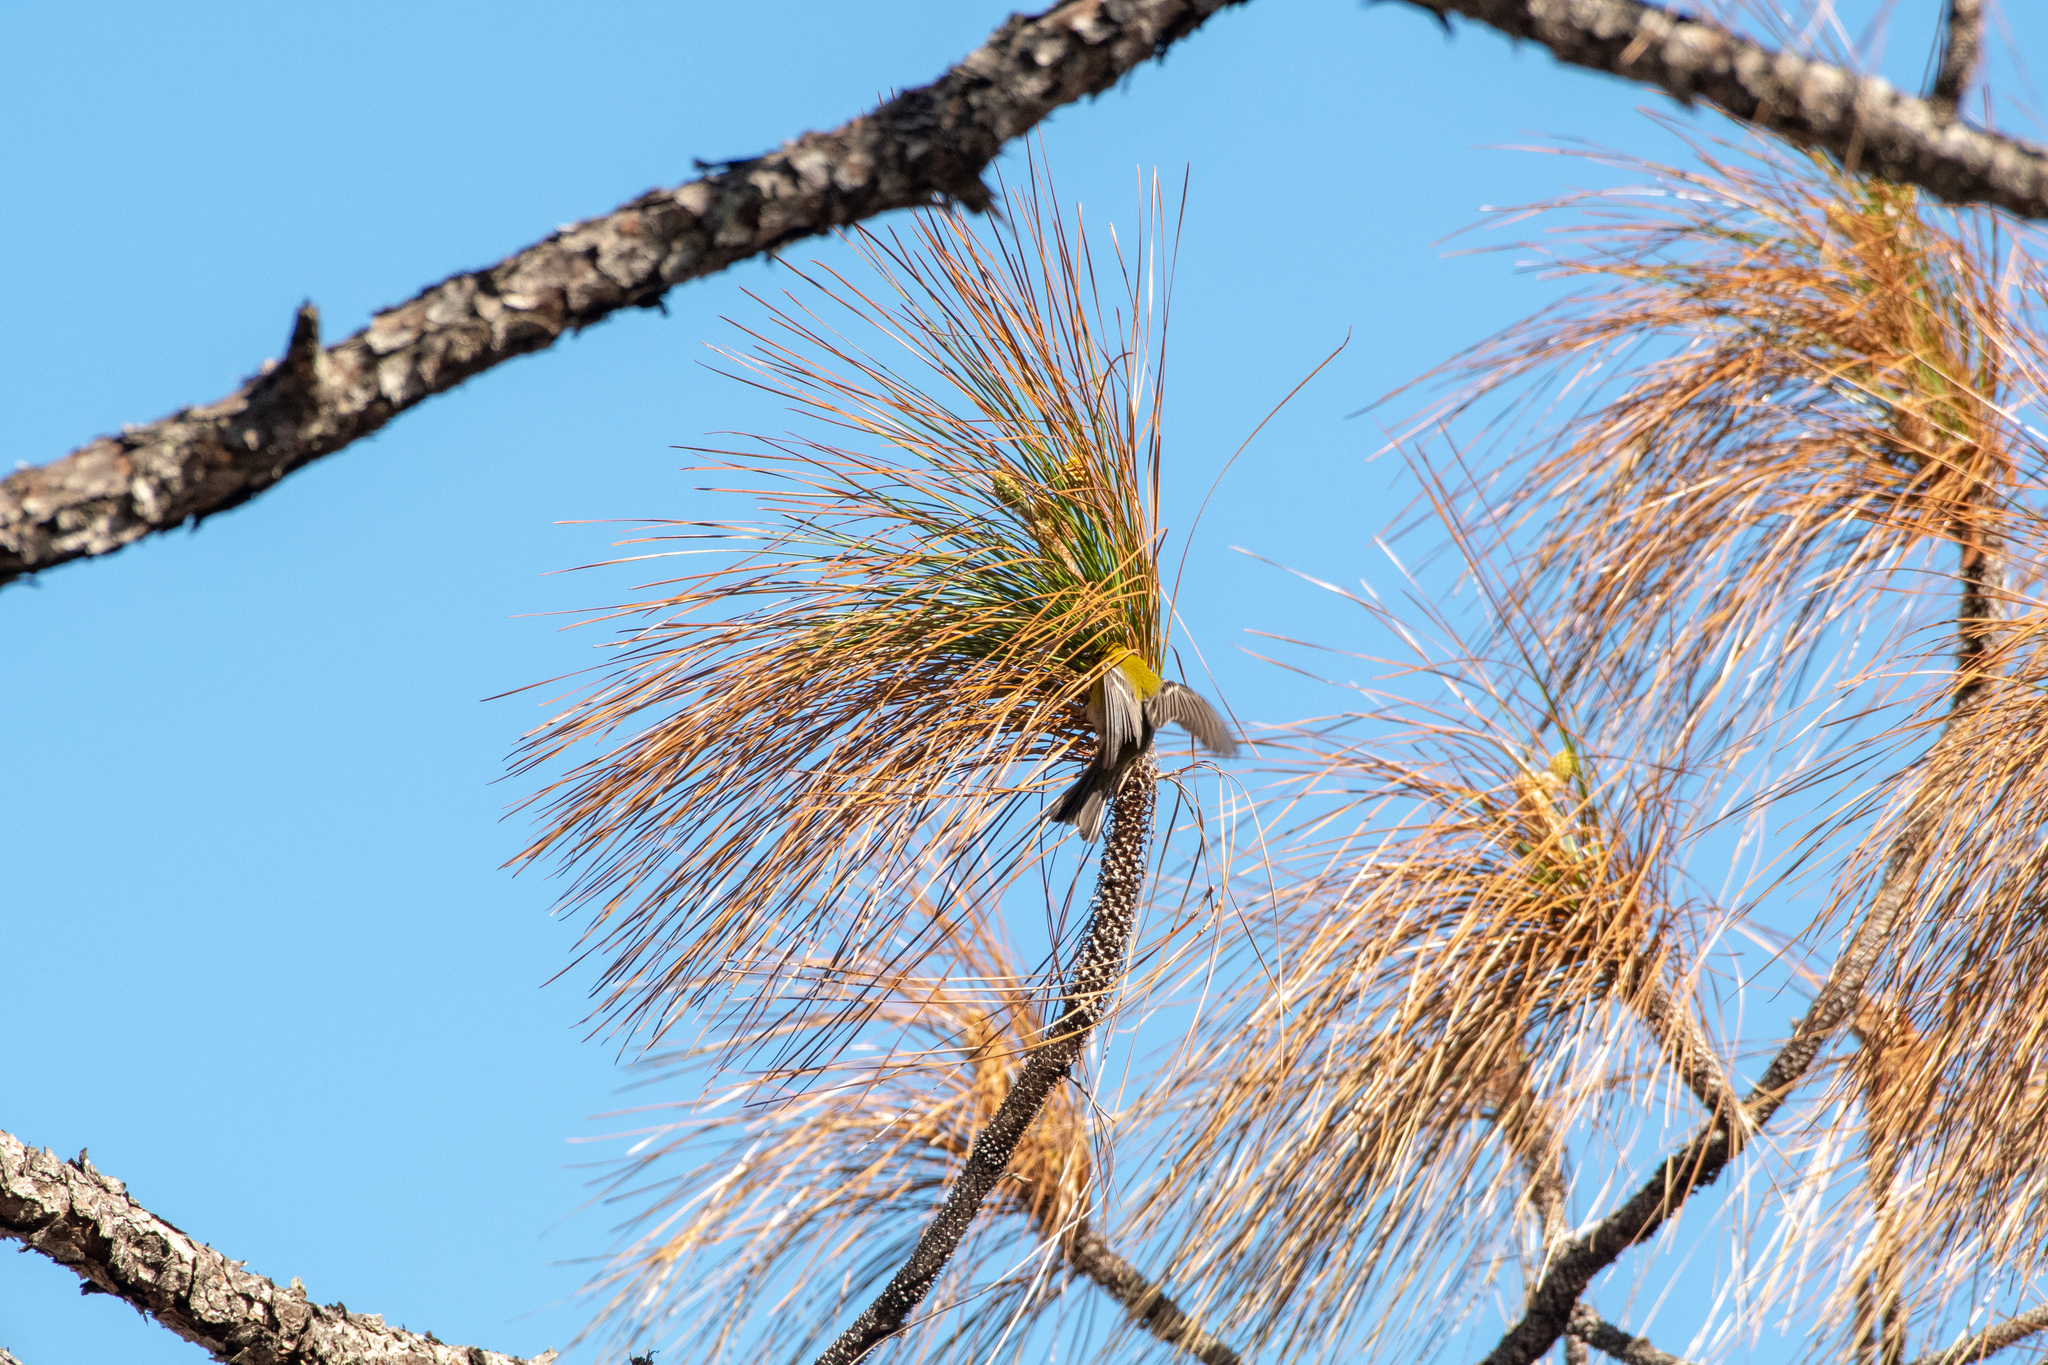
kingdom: Animalia
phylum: Chordata
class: Aves
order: Passeriformes
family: Parulidae
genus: Setophaga
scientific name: Setophaga pinus
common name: Pine warbler
